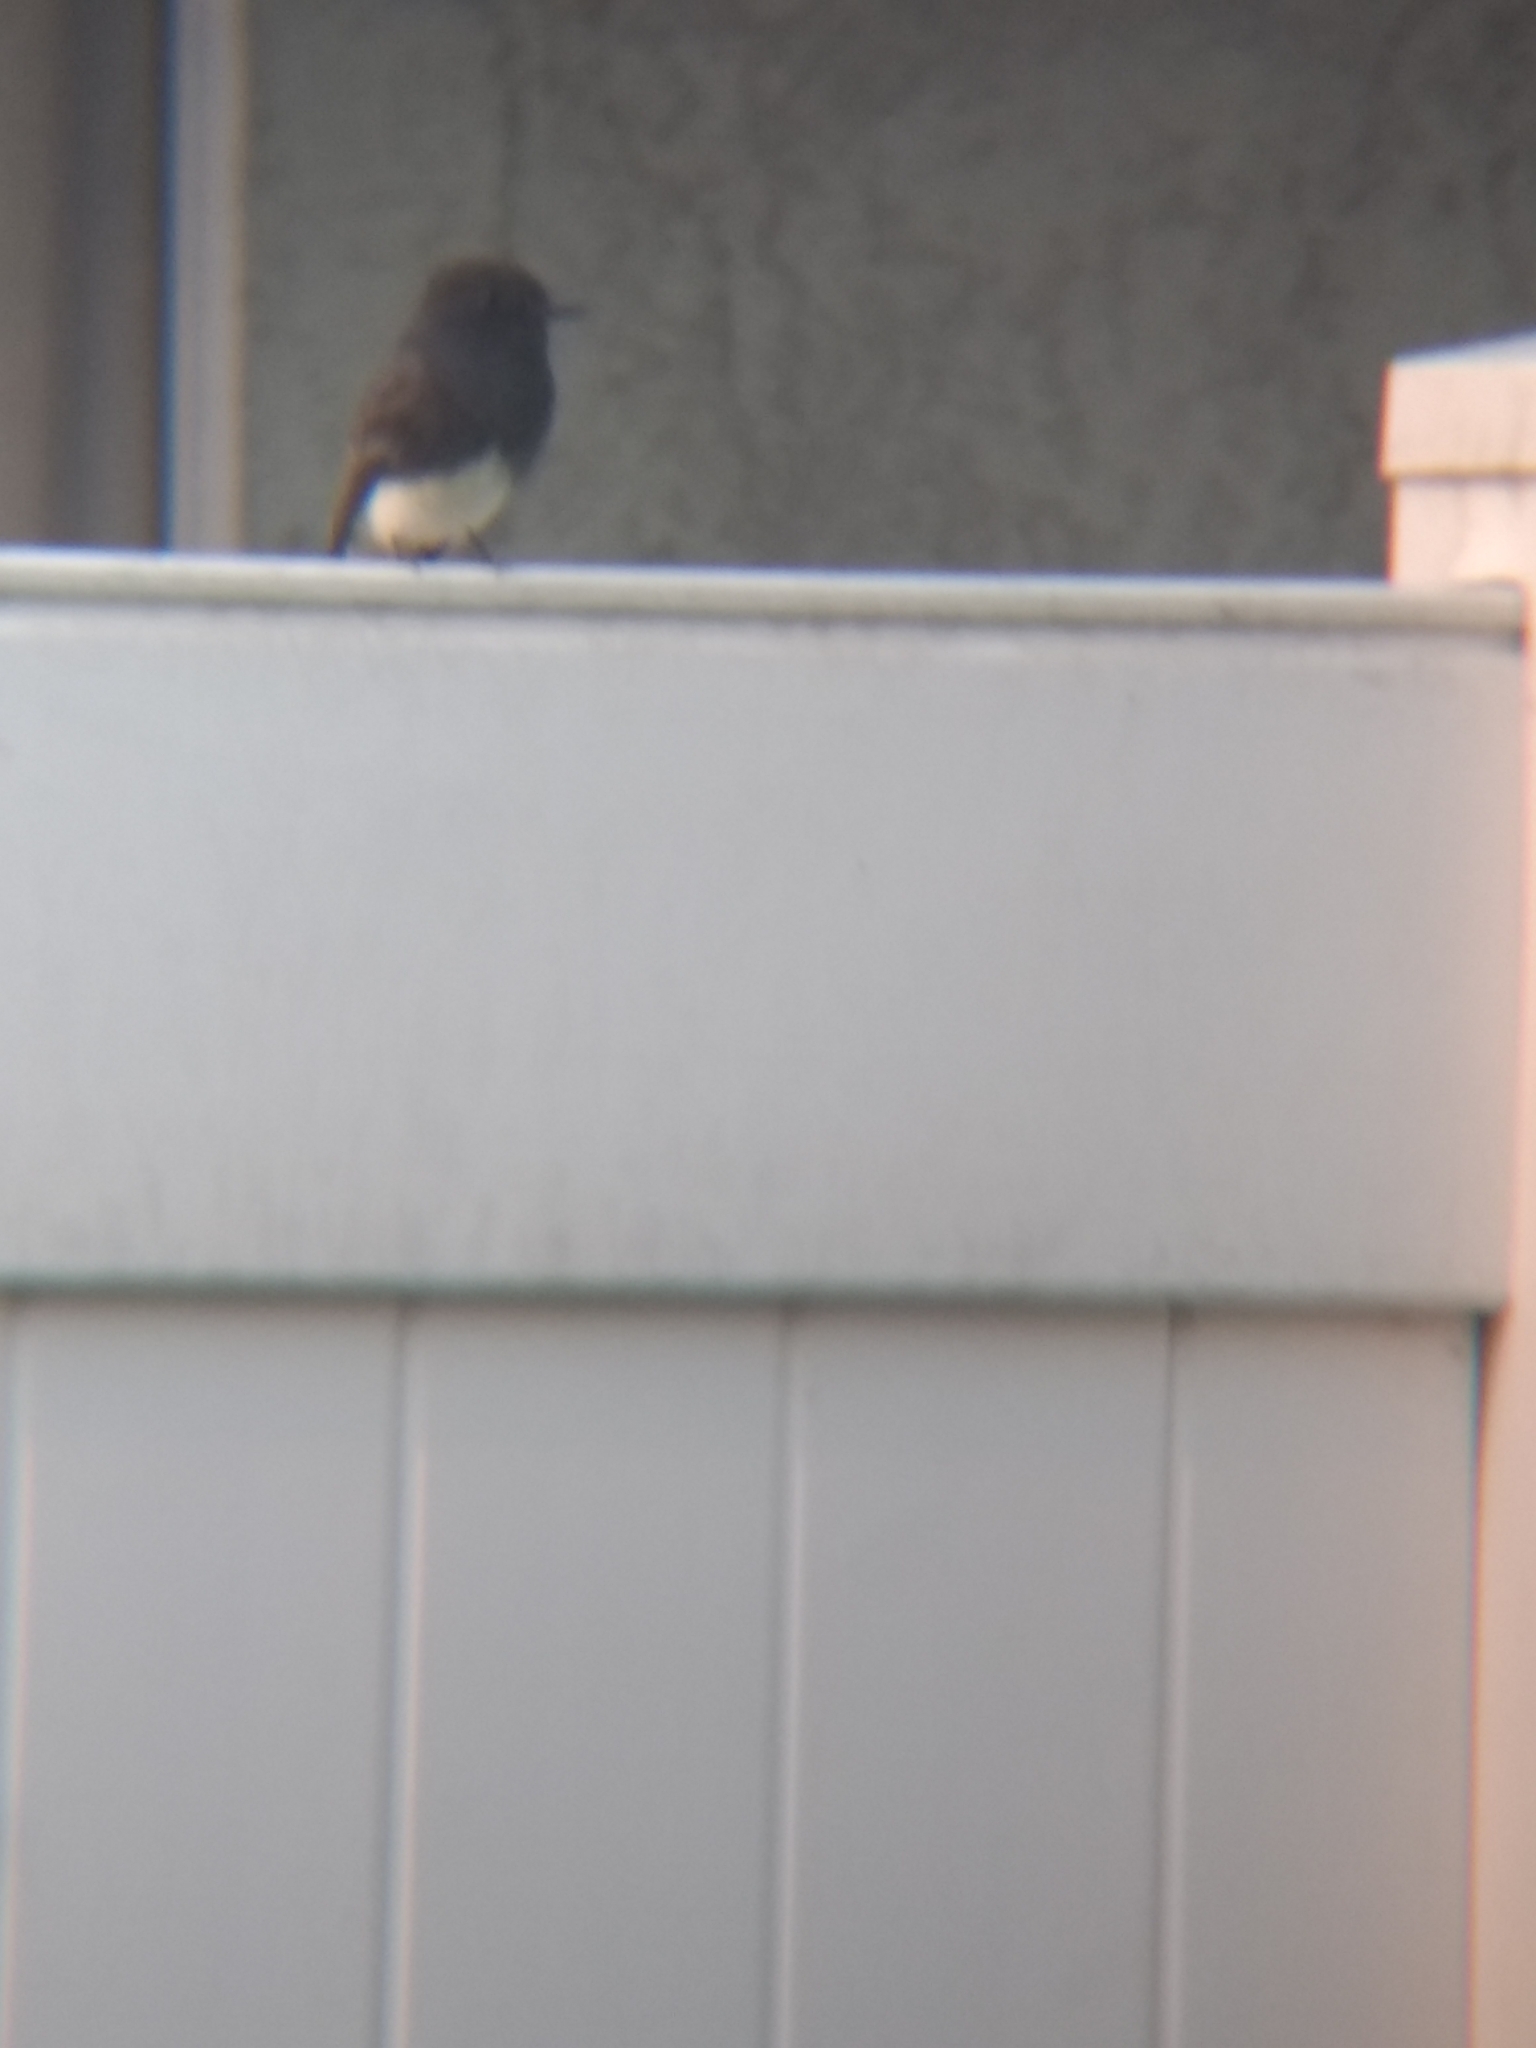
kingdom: Animalia
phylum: Chordata
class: Aves
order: Passeriformes
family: Tyrannidae
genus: Sayornis
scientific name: Sayornis nigricans
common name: Black phoebe
